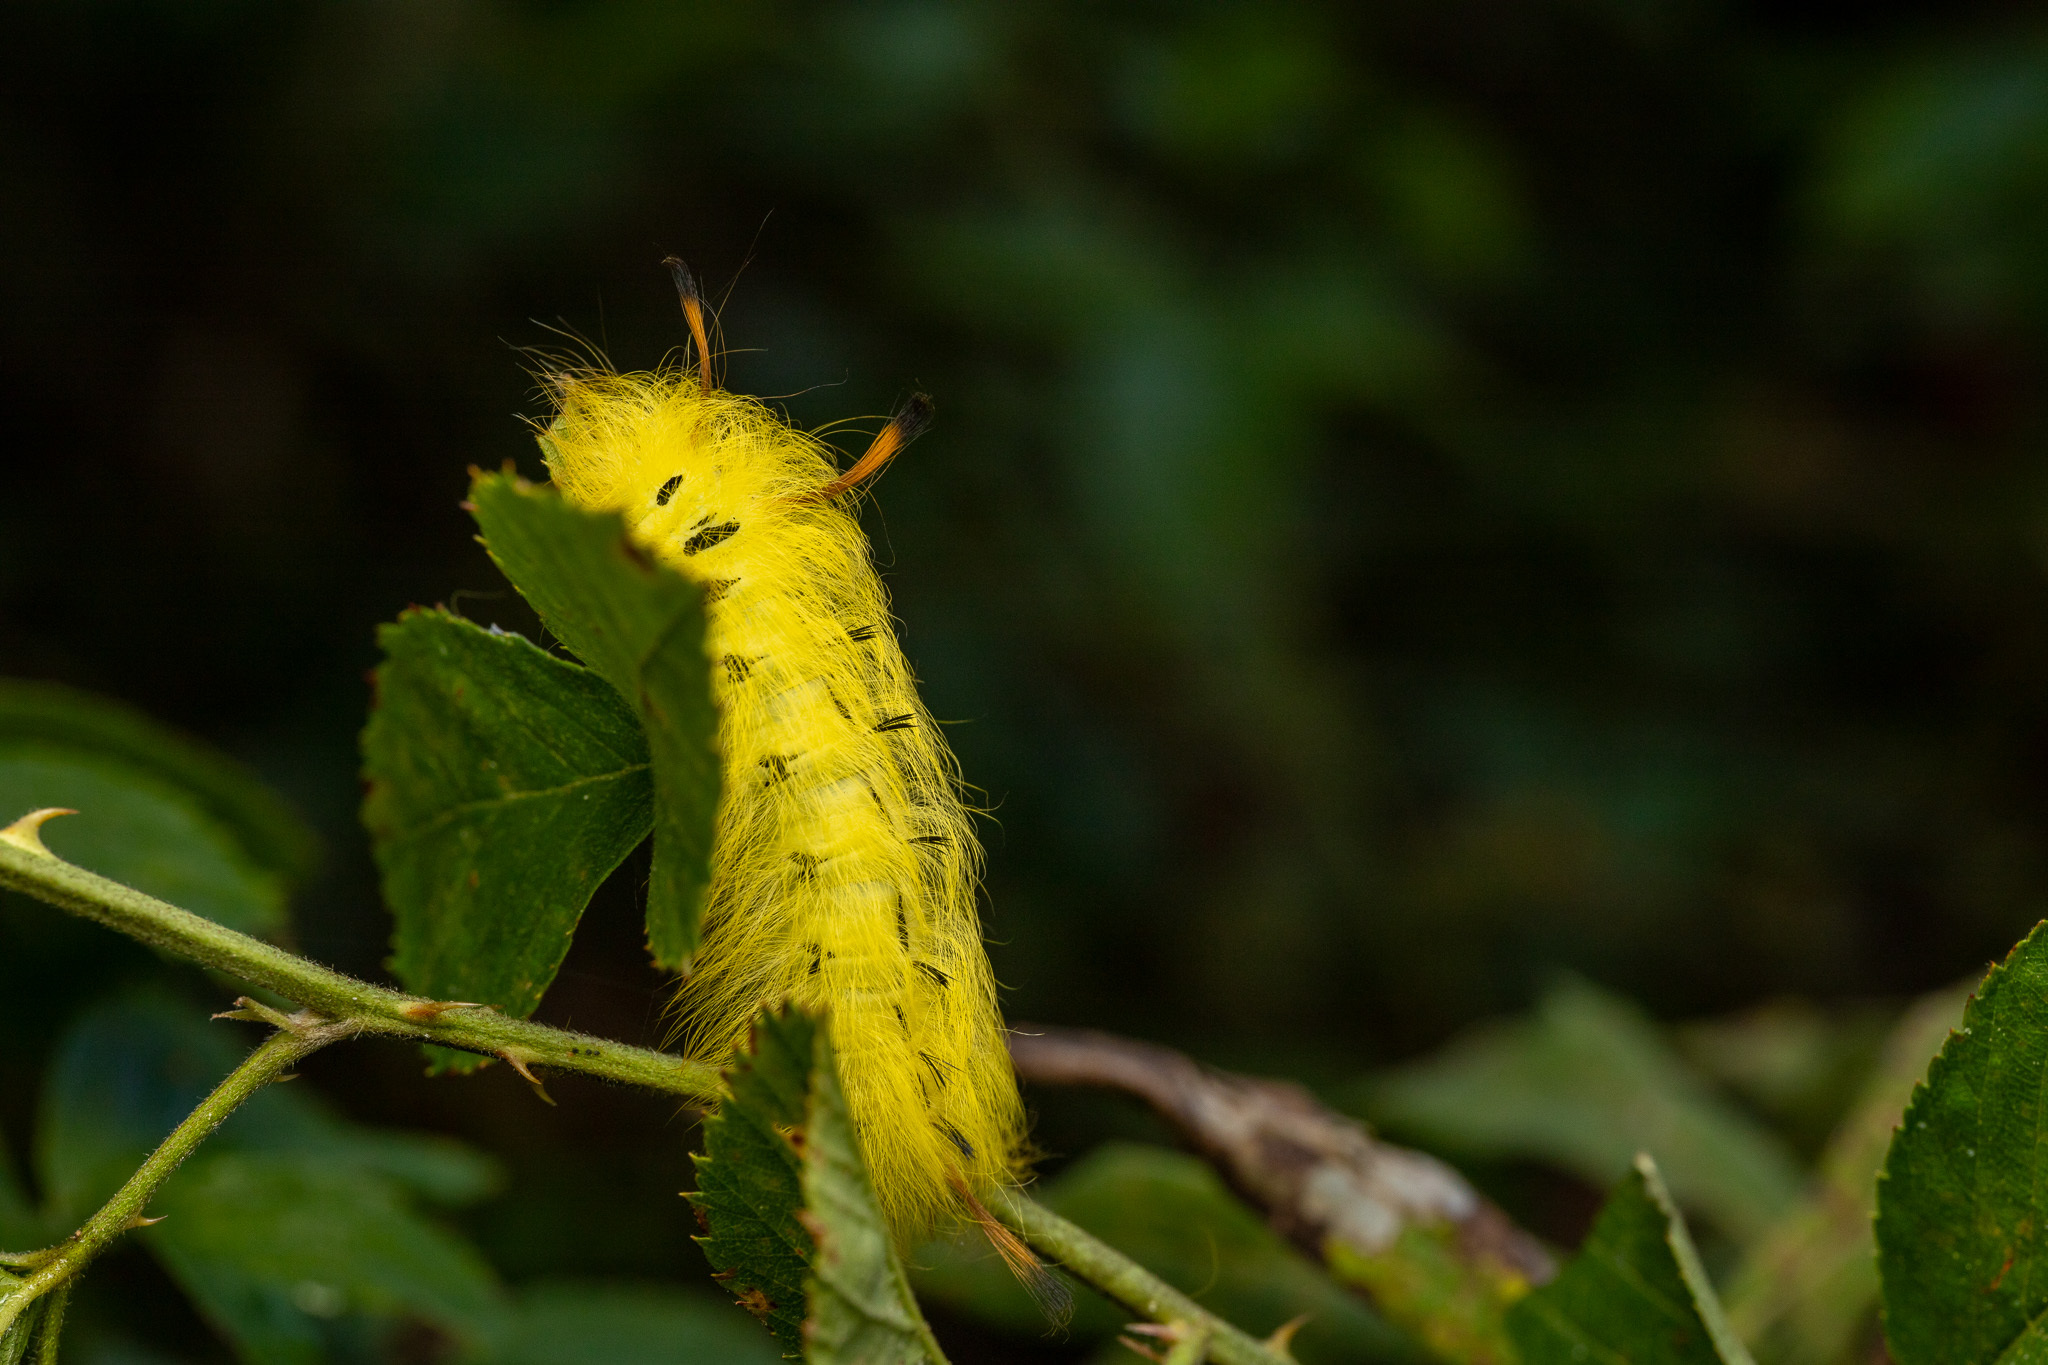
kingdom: Animalia
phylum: Arthropoda
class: Insecta
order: Lepidoptera
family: Apatelodidae
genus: Hygrochroa
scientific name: Hygrochroa Apatelodes torrefacta
